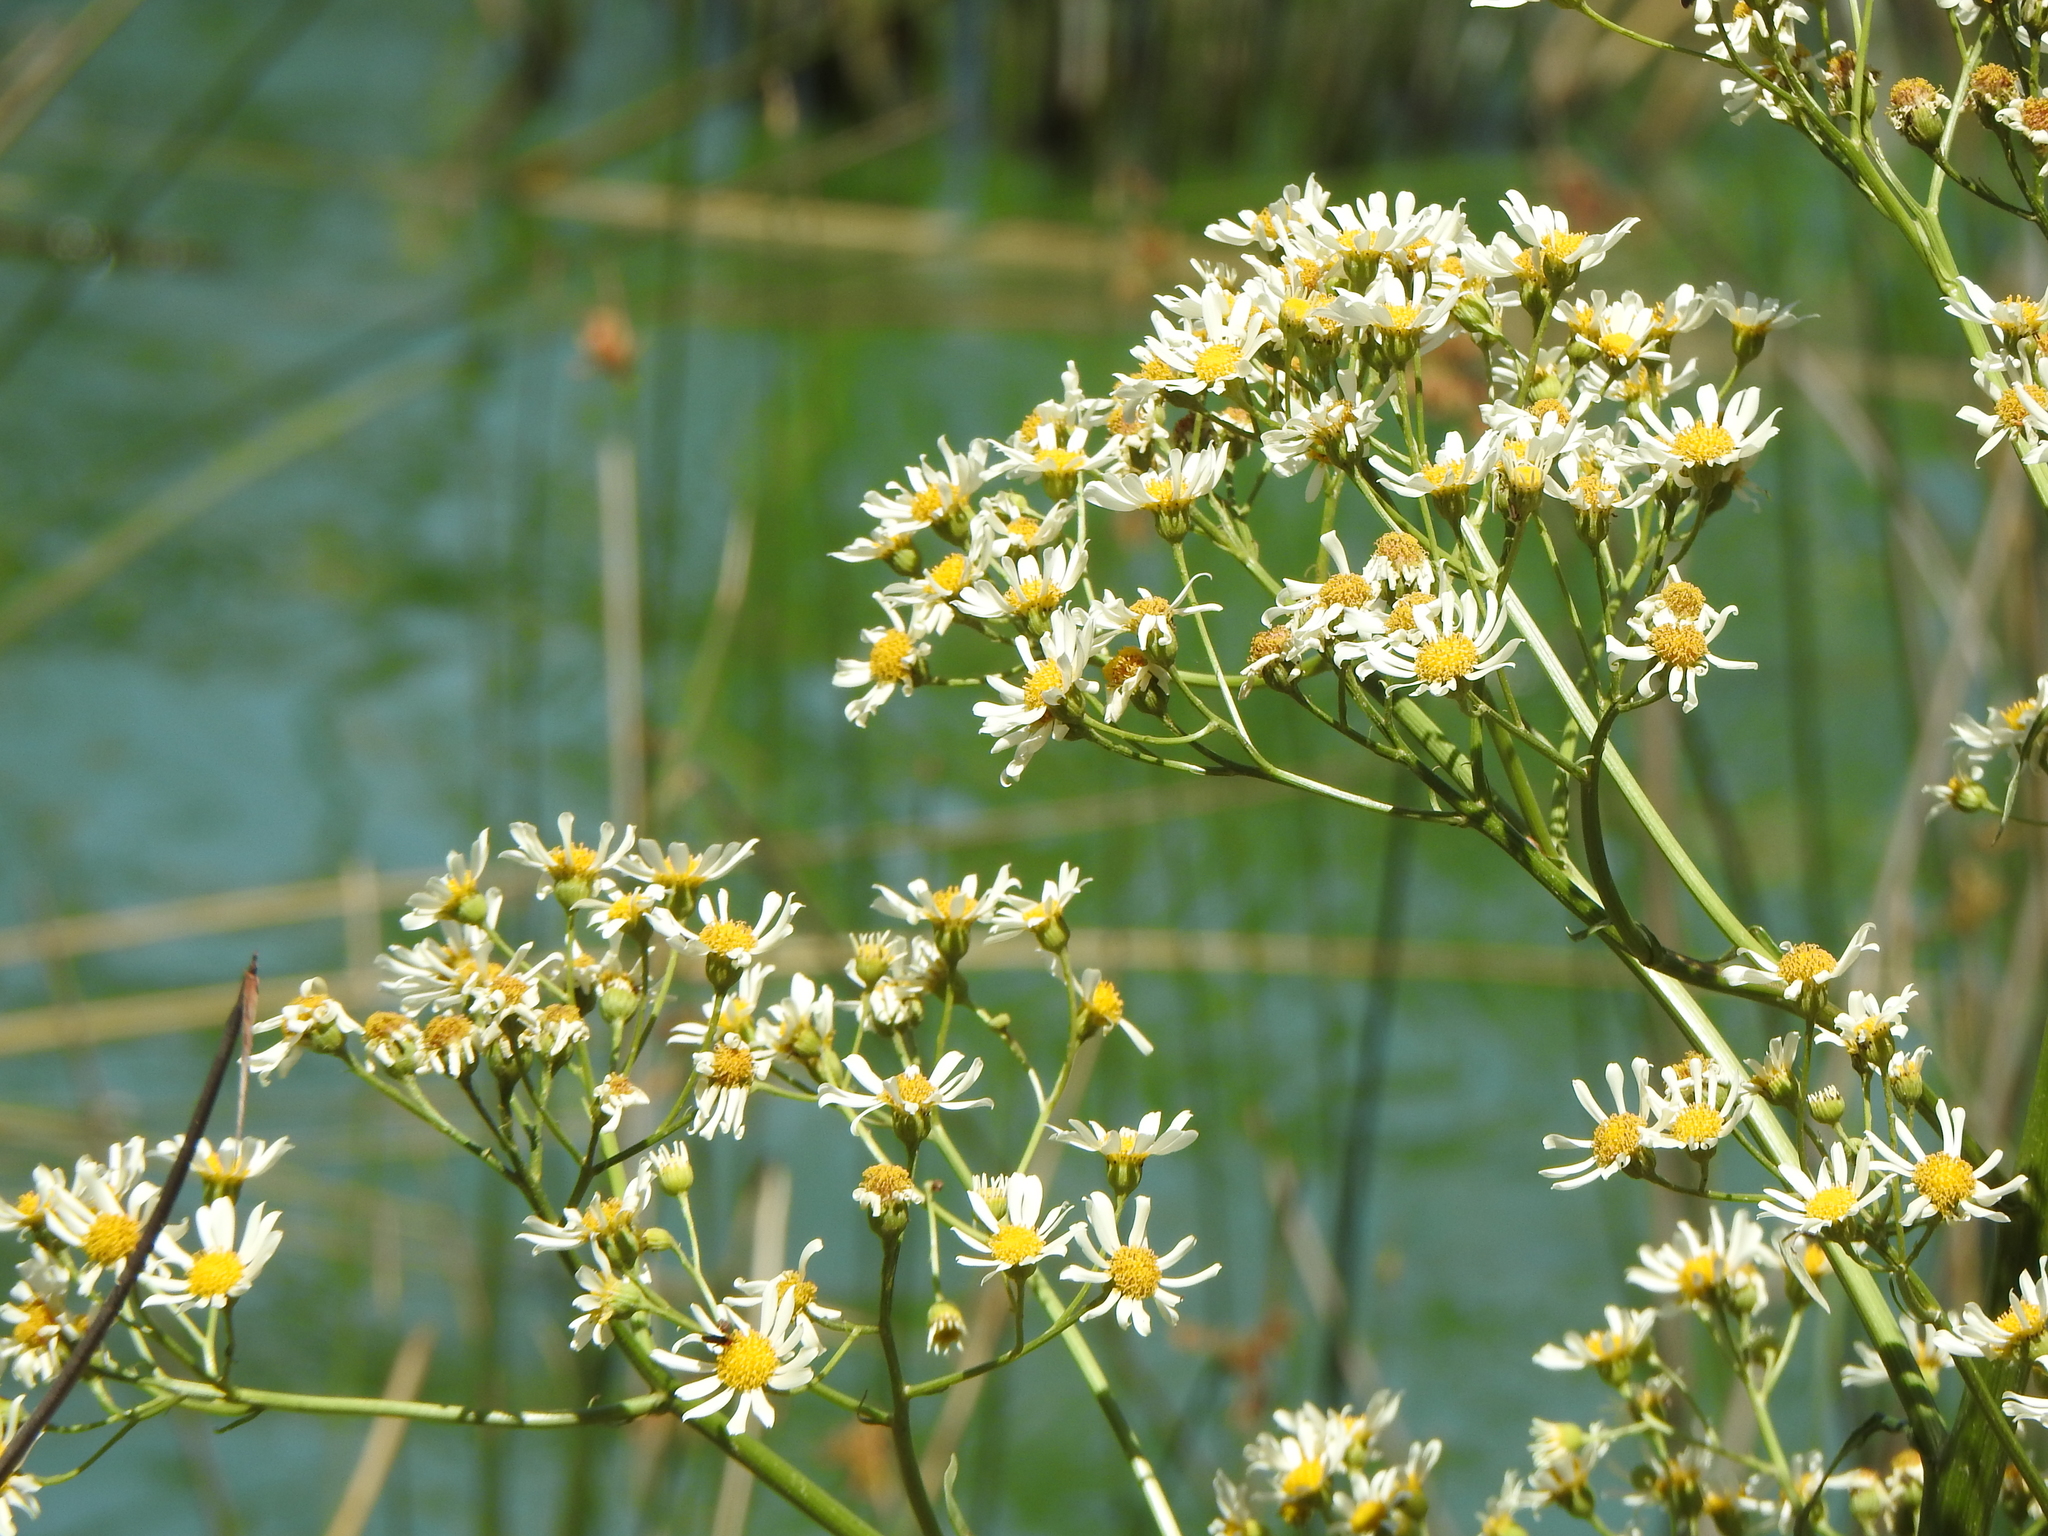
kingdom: Plantae
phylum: Tracheophyta
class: Magnoliopsida
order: Asterales
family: Asteraceae
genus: Senecio
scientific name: Senecio bonariensis
